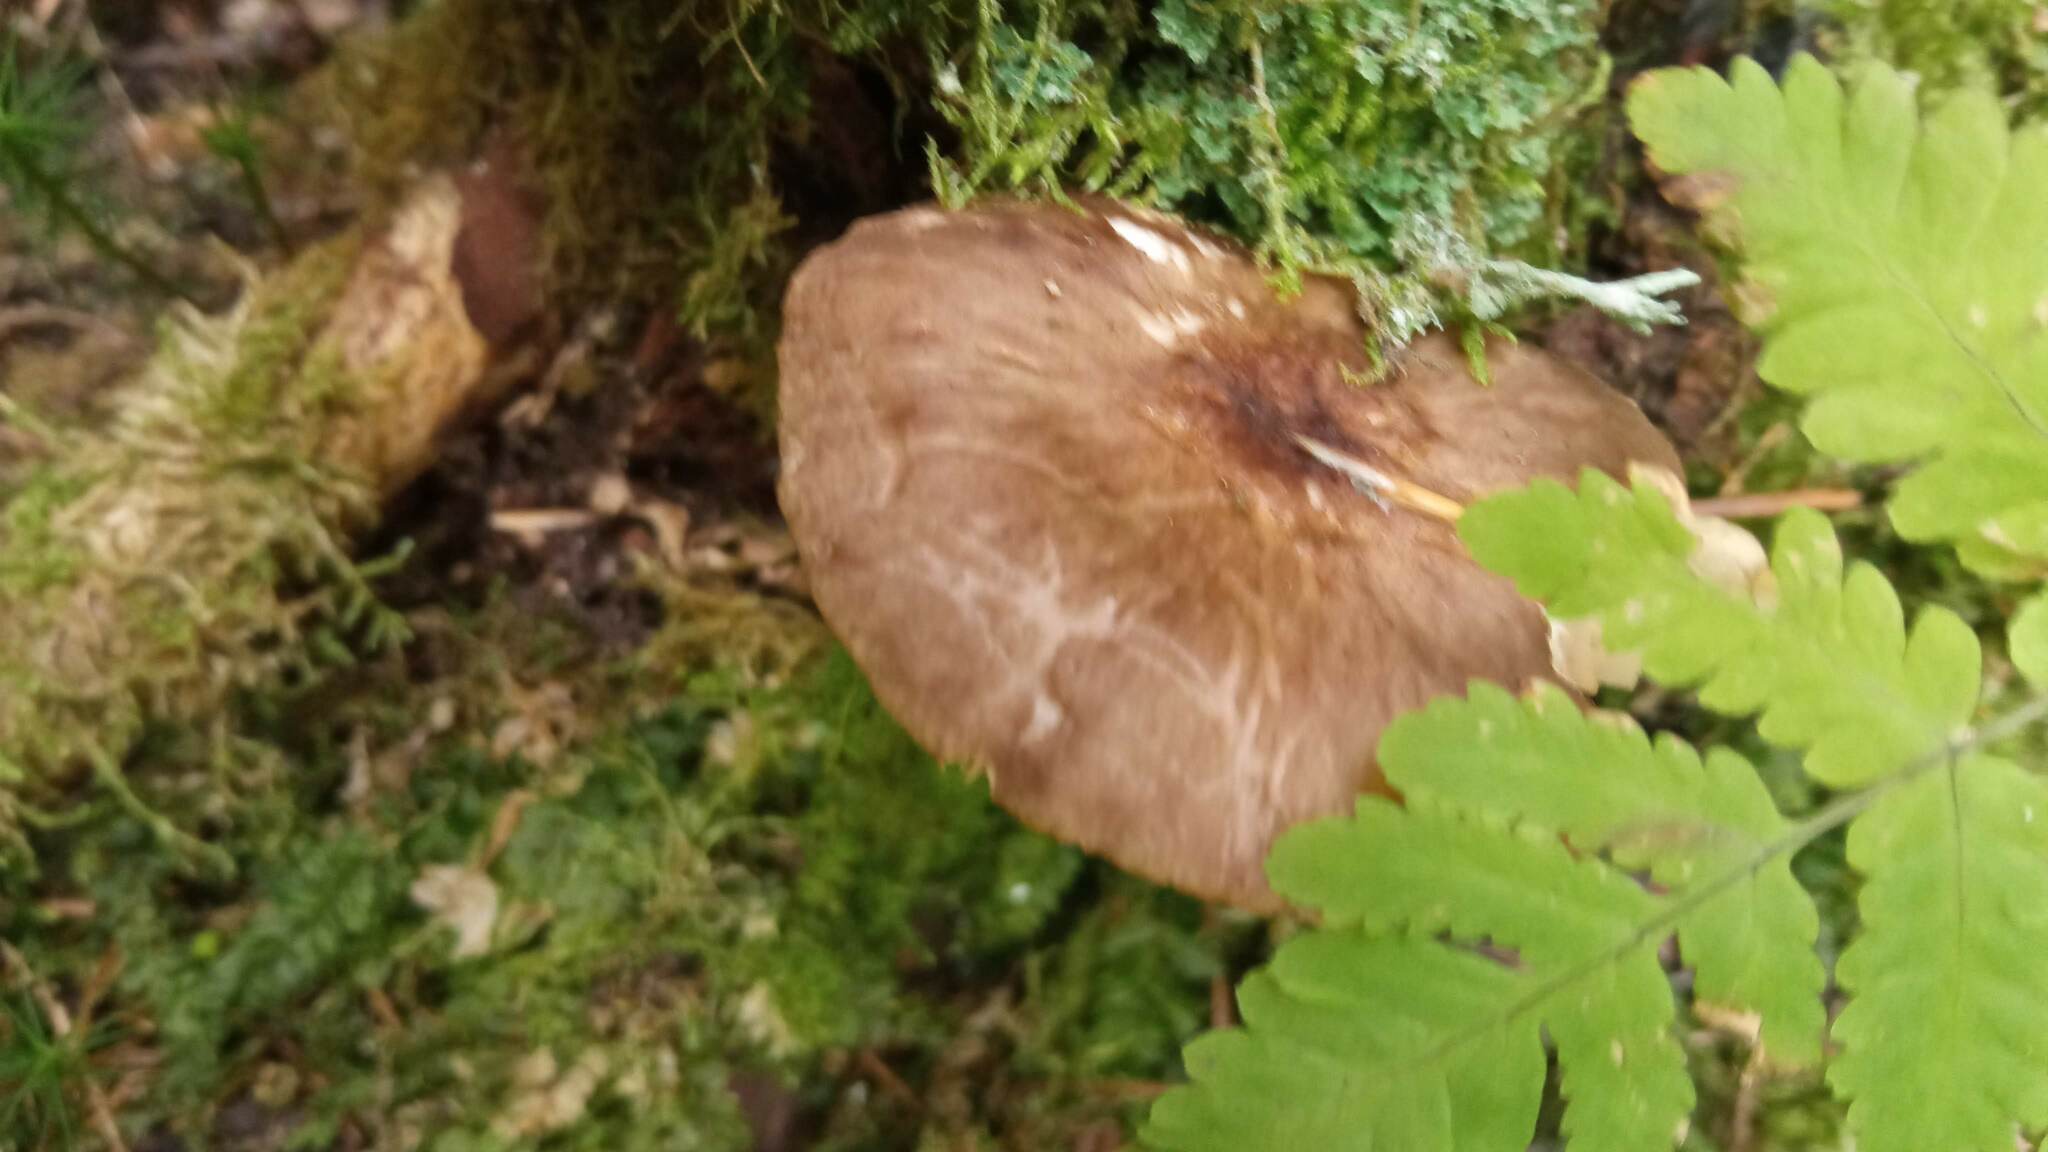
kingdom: Fungi
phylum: Basidiomycota
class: Agaricomycetes
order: Agaricales
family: Pluteaceae
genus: Pluteus
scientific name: Pluteus cervinus
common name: Deer shield
